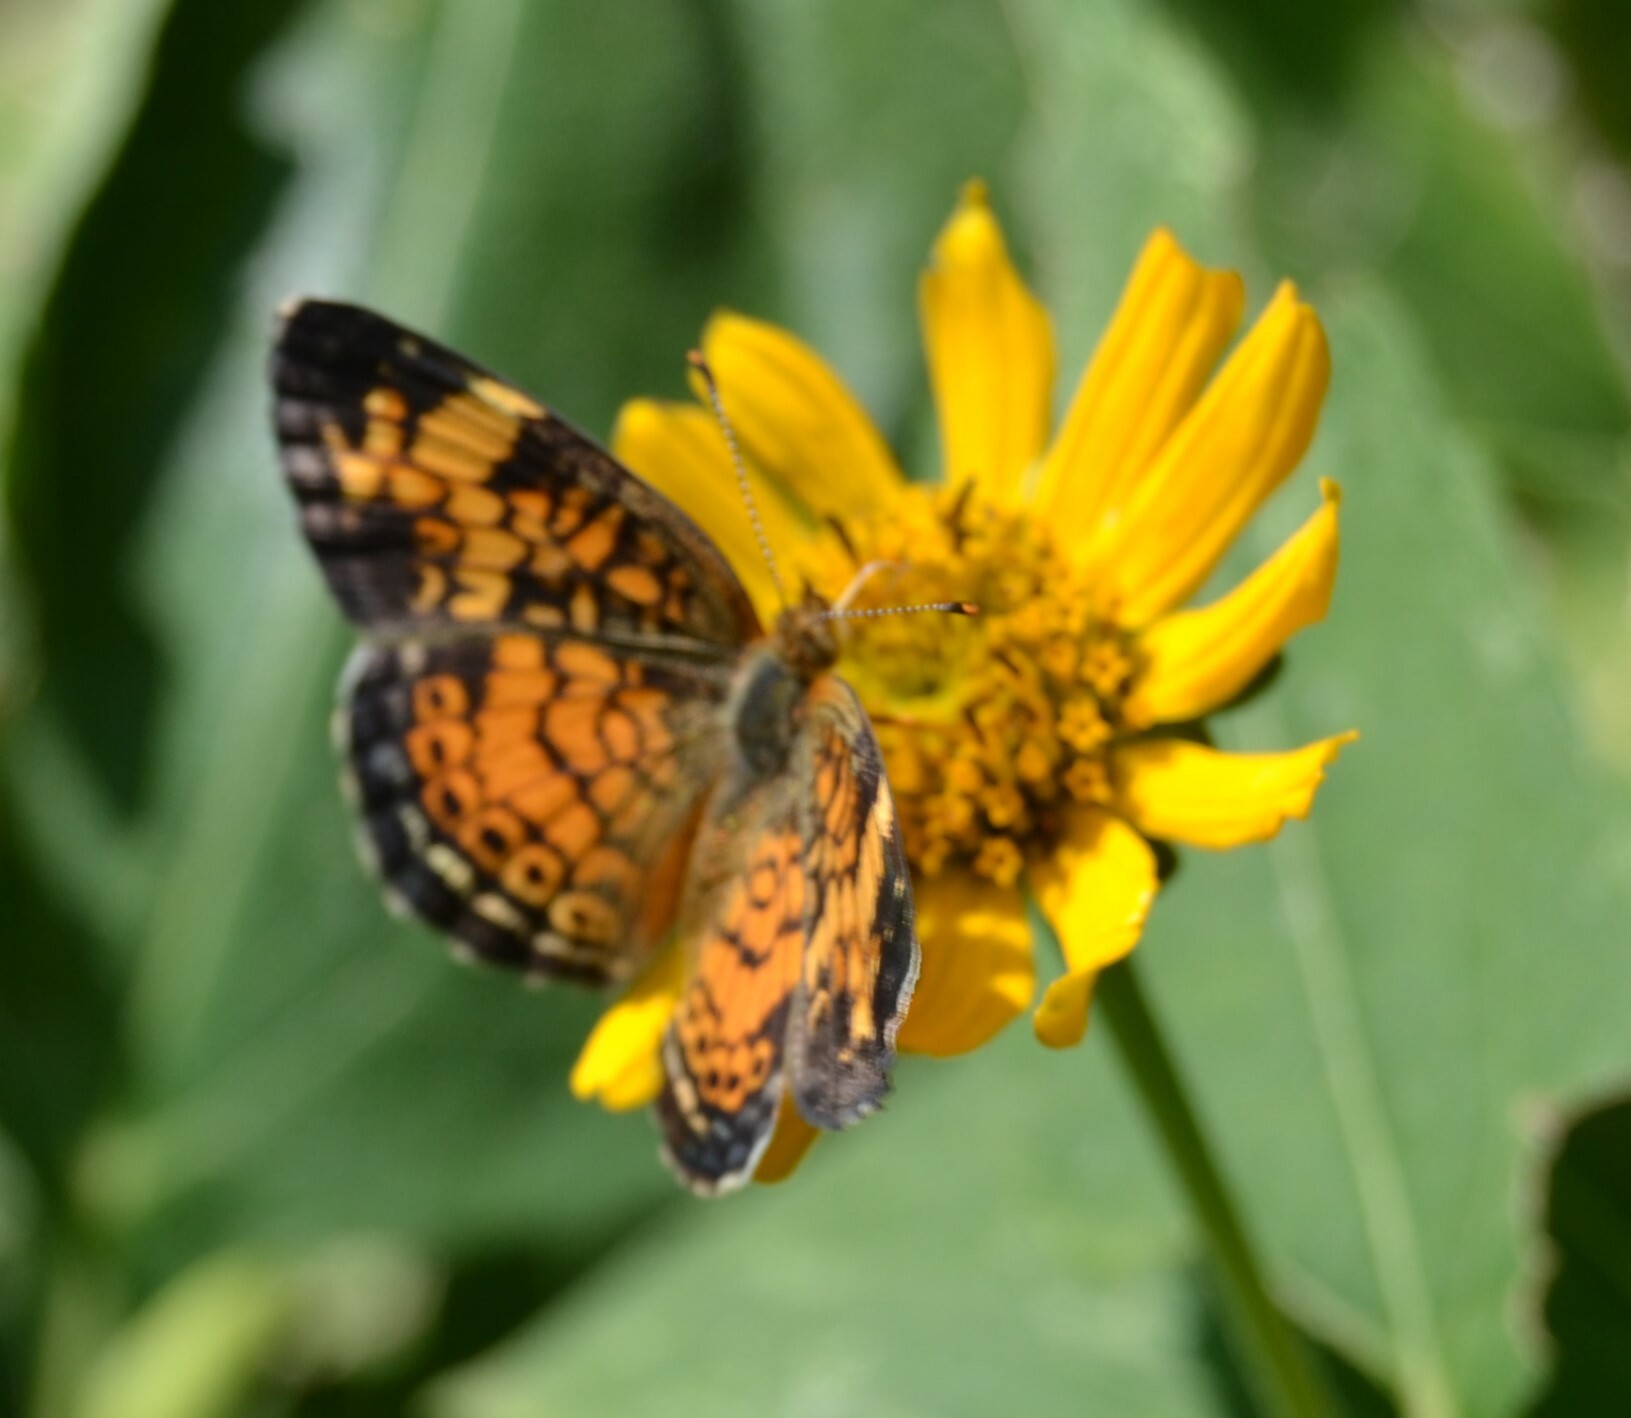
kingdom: Animalia
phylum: Arthropoda
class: Insecta
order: Lepidoptera
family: Nymphalidae
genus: Phyciodes
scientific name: Phyciodes tharos
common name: Pearl crescent
